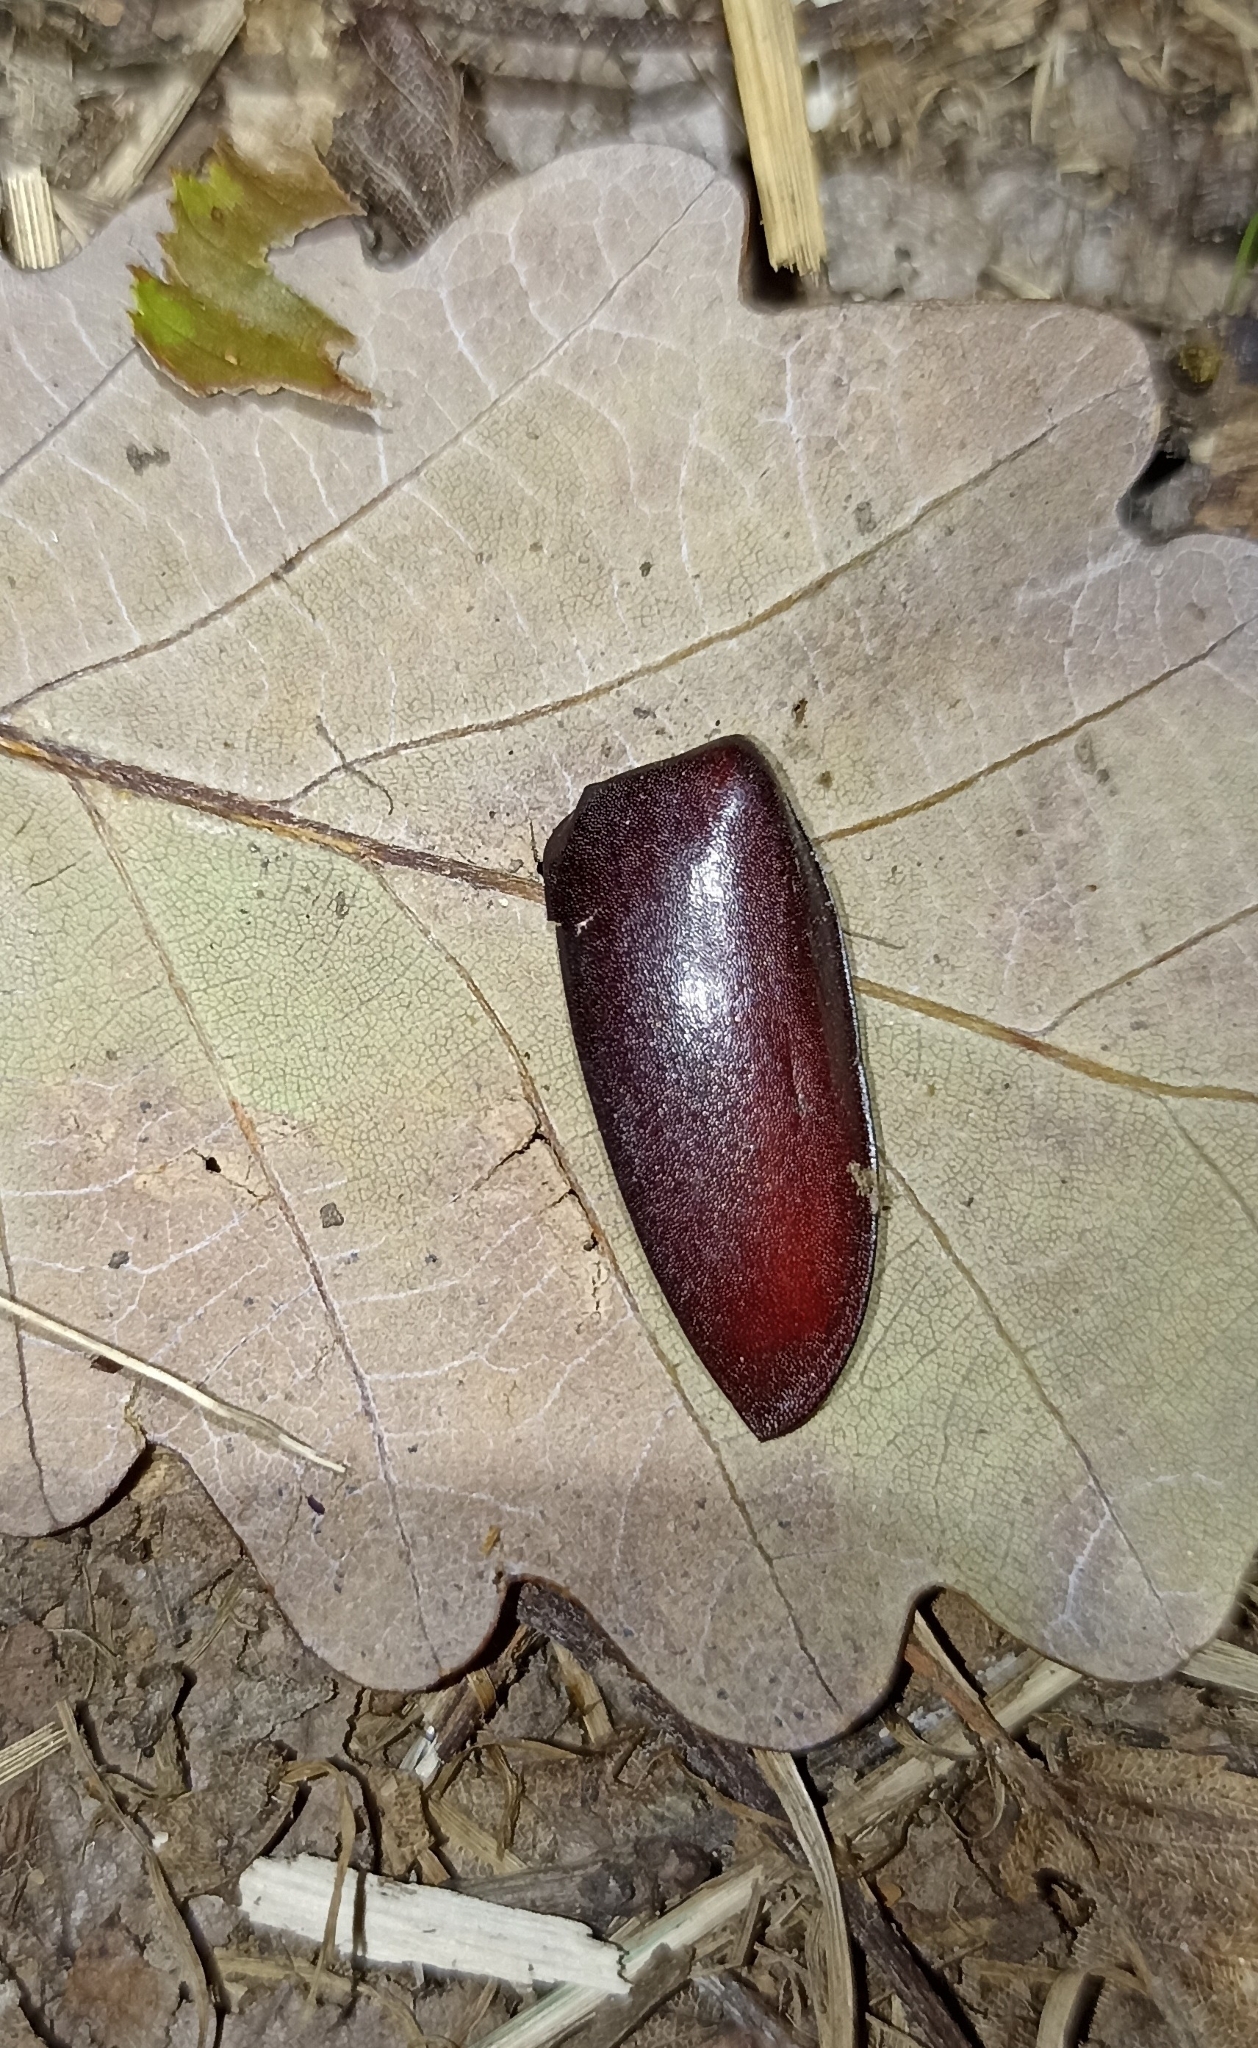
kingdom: Animalia
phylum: Arthropoda
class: Insecta
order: Coleoptera
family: Lucanidae
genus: Lucanus
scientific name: Lucanus cervus
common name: Stag beetle
